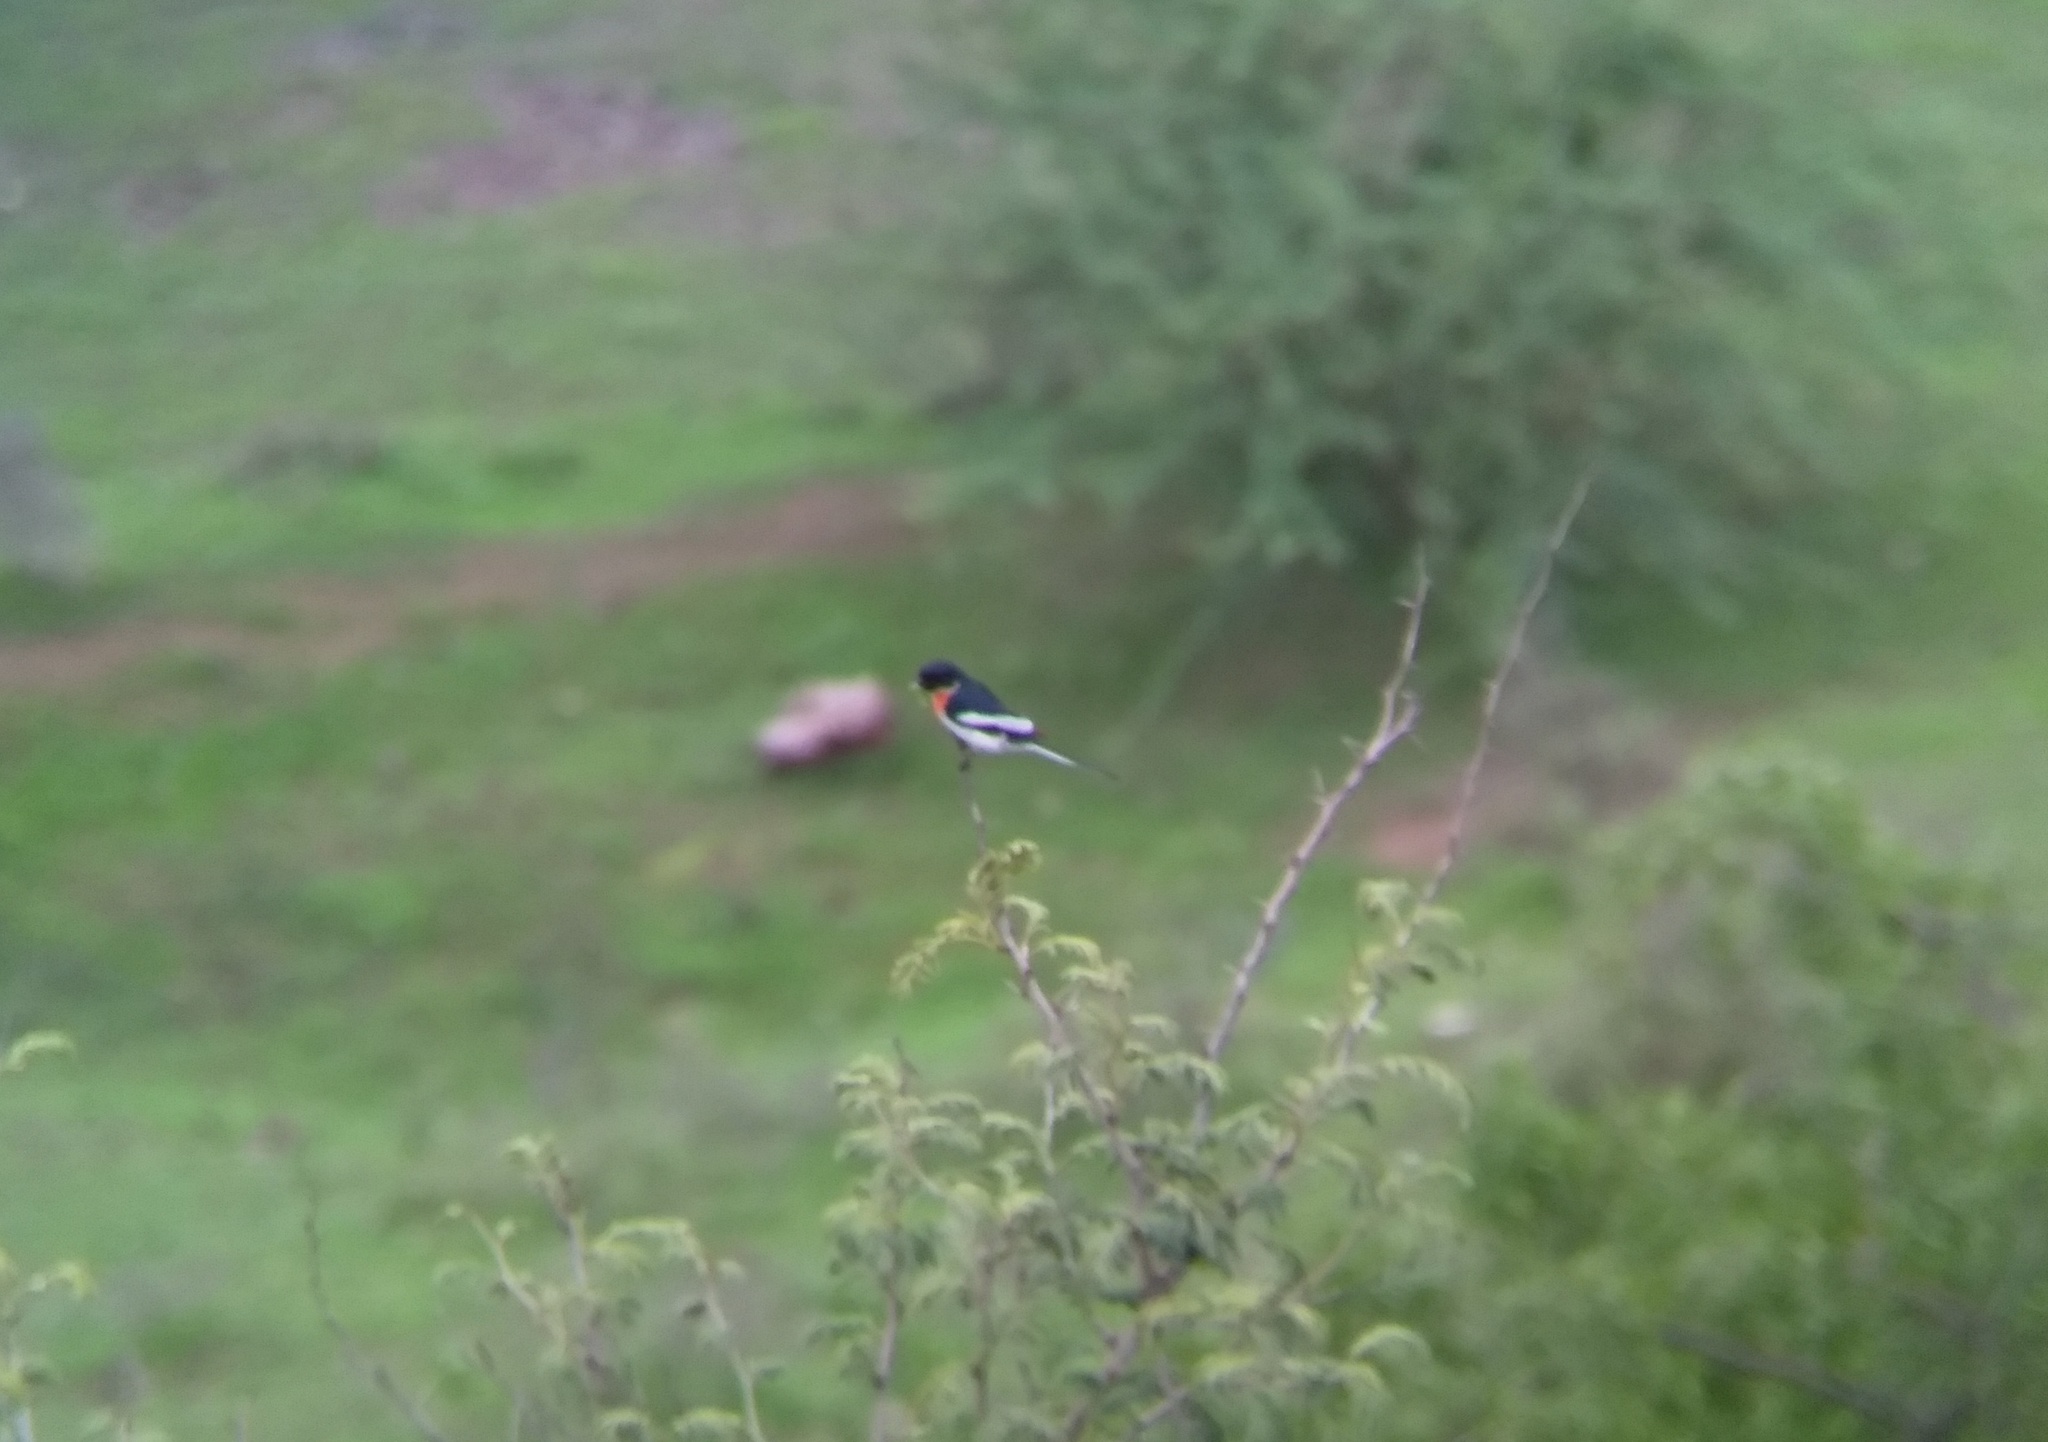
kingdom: Animalia
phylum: Chordata
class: Aves
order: Passeriformes
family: Campephagidae
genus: Pericrocotus
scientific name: Pericrocotus erythropygius
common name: White-bellied minivet
